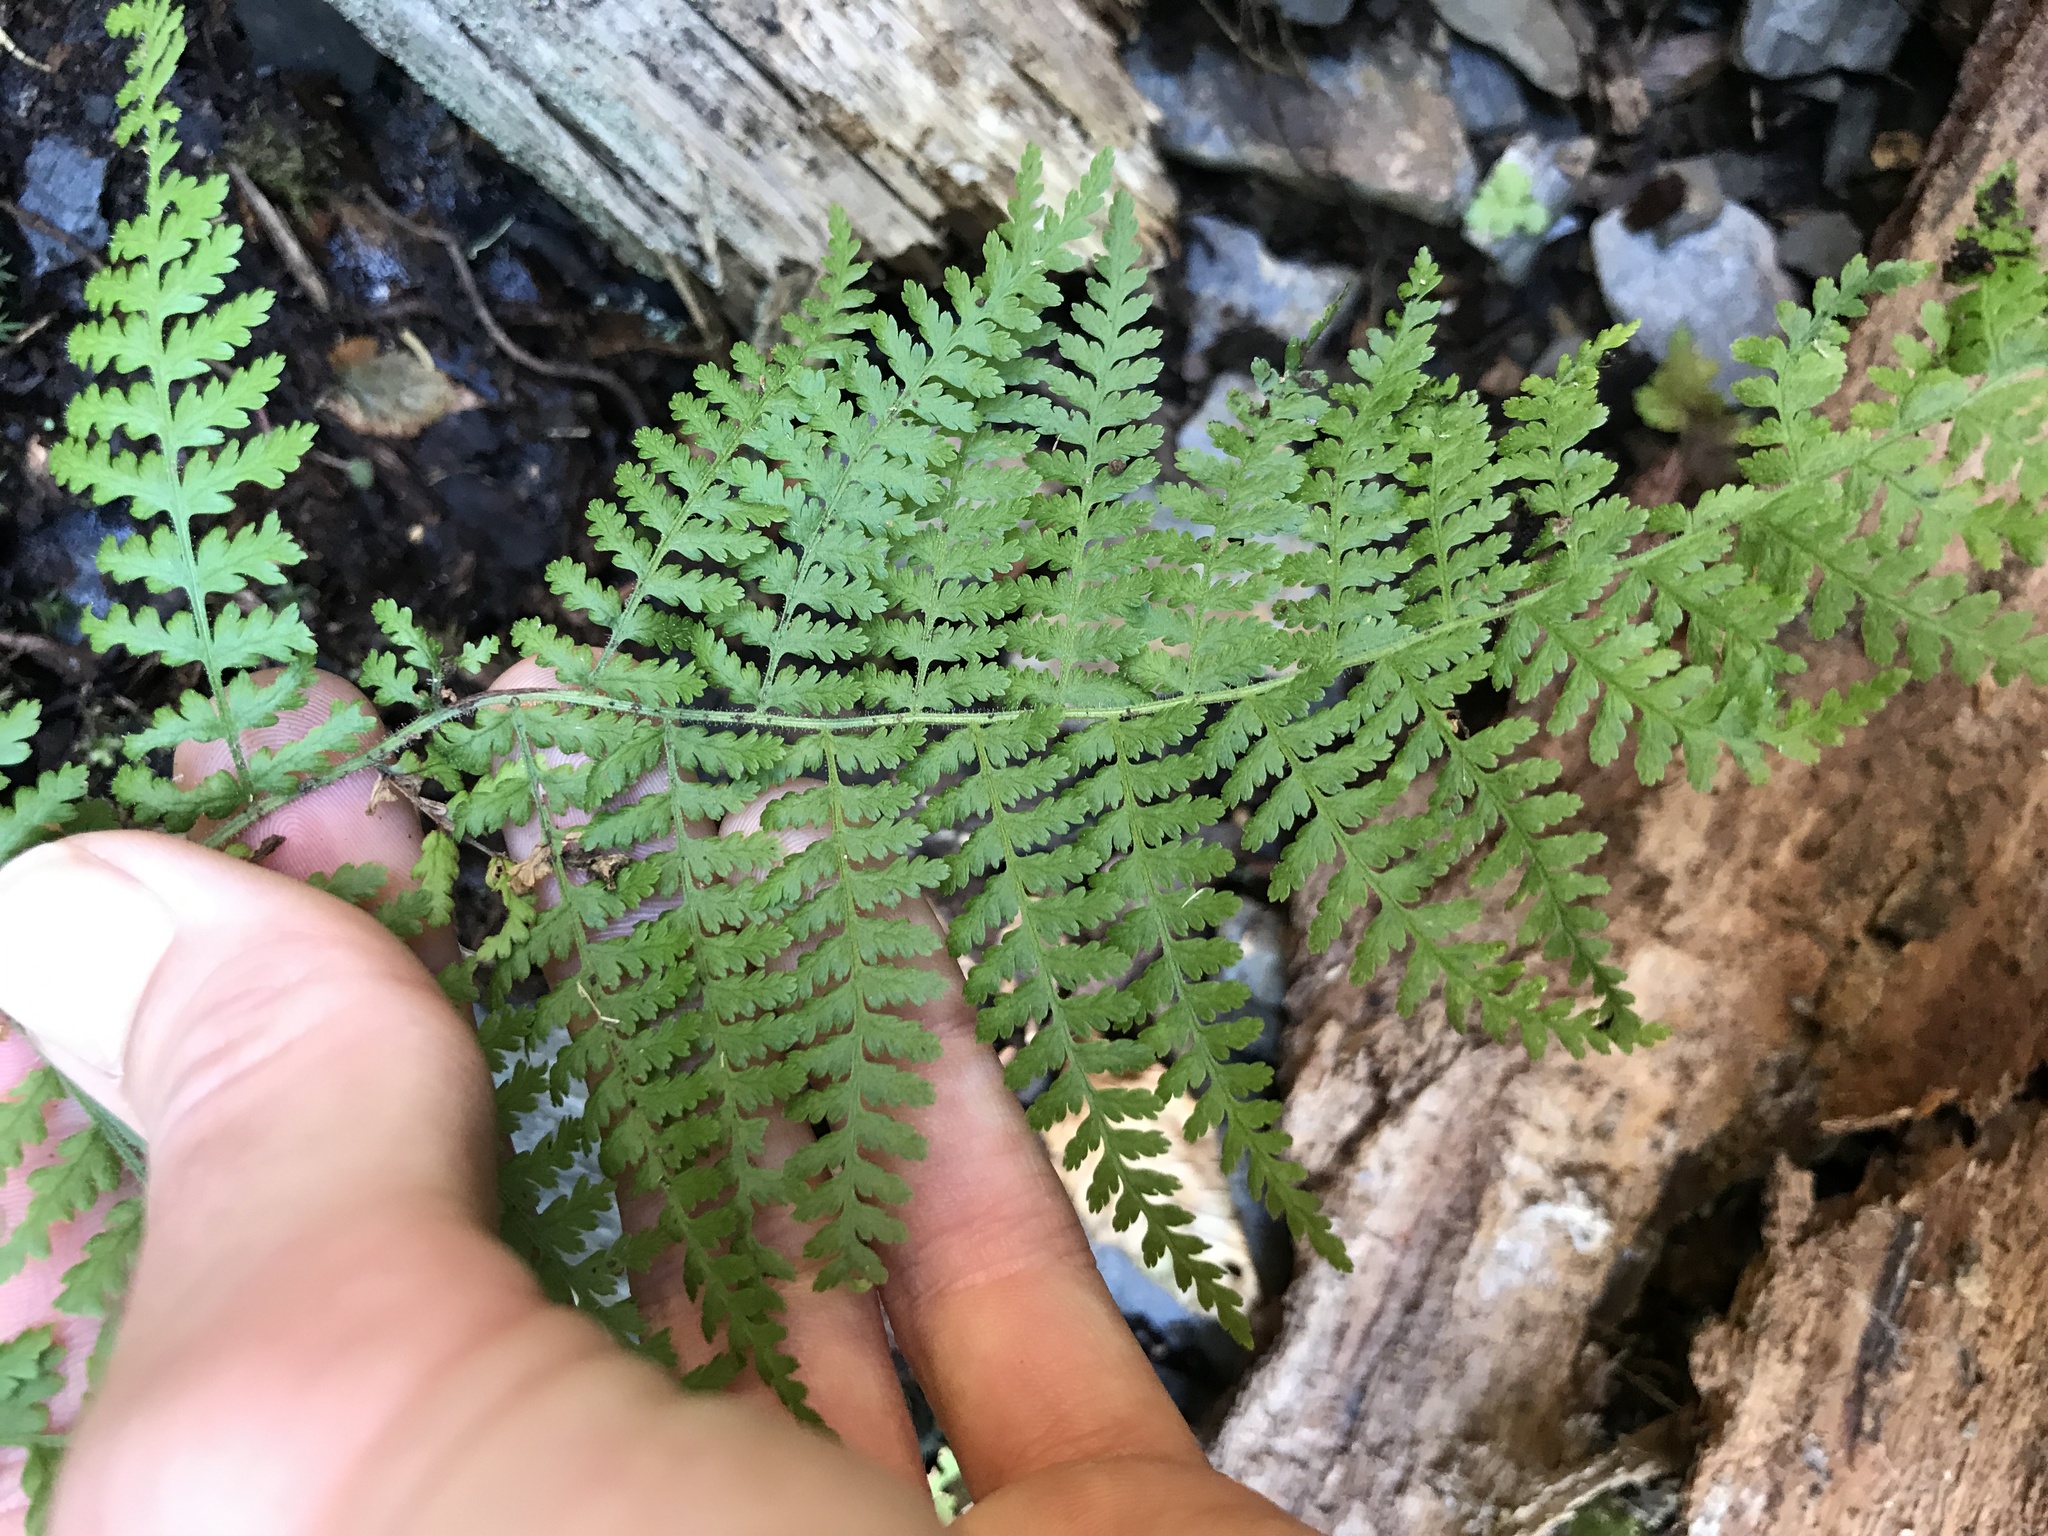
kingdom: Plantae
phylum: Tracheophyta
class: Polypodiopsida
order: Polypodiales
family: Dennstaedtiaceae
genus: Sitobolium
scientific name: Sitobolium punctilobum
